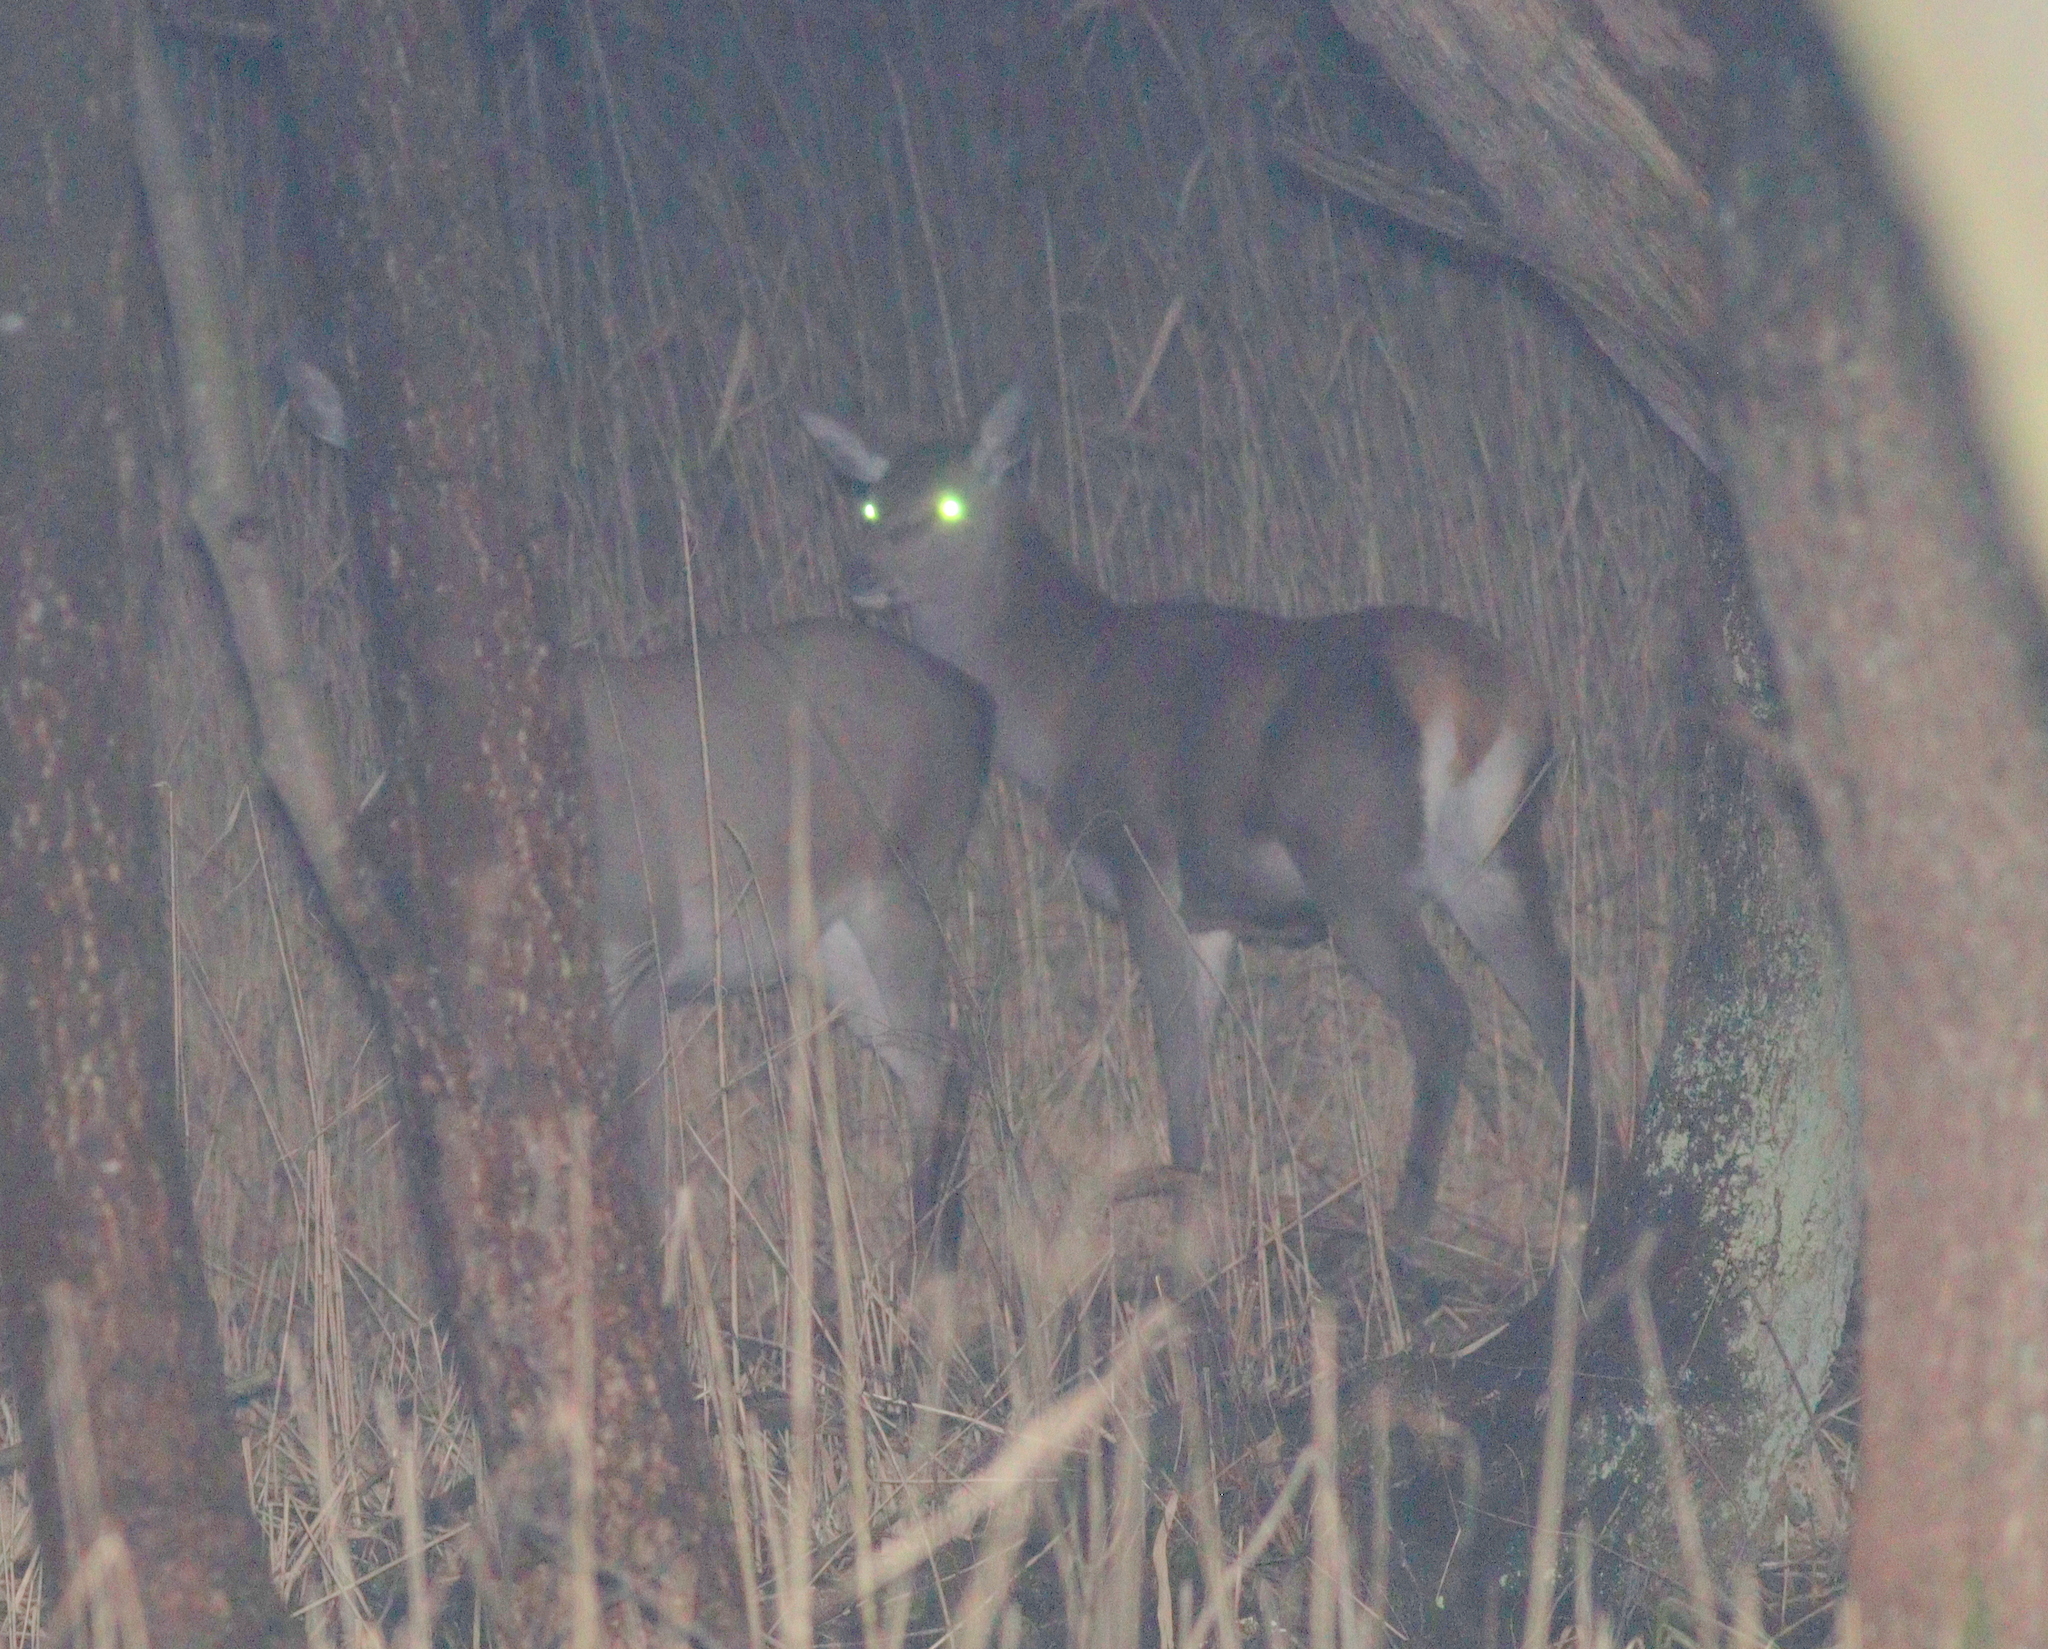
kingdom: Animalia
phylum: Chordata
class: Mammalia
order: Artiodactyla
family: Cervidae
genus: Cervus
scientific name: Cervus elaphus
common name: Red deer
